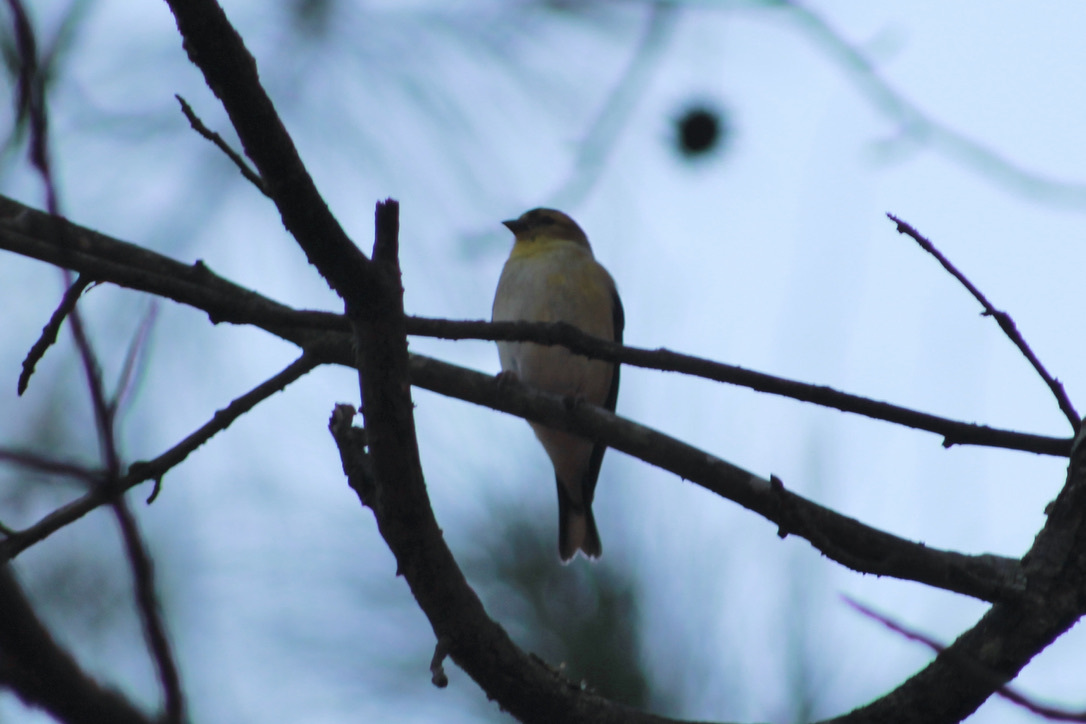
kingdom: Animalia
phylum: Chordata
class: Aves
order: Passeriformes
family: Fringillidae
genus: Spinus
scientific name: Spinus tristis
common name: American goldfinch
